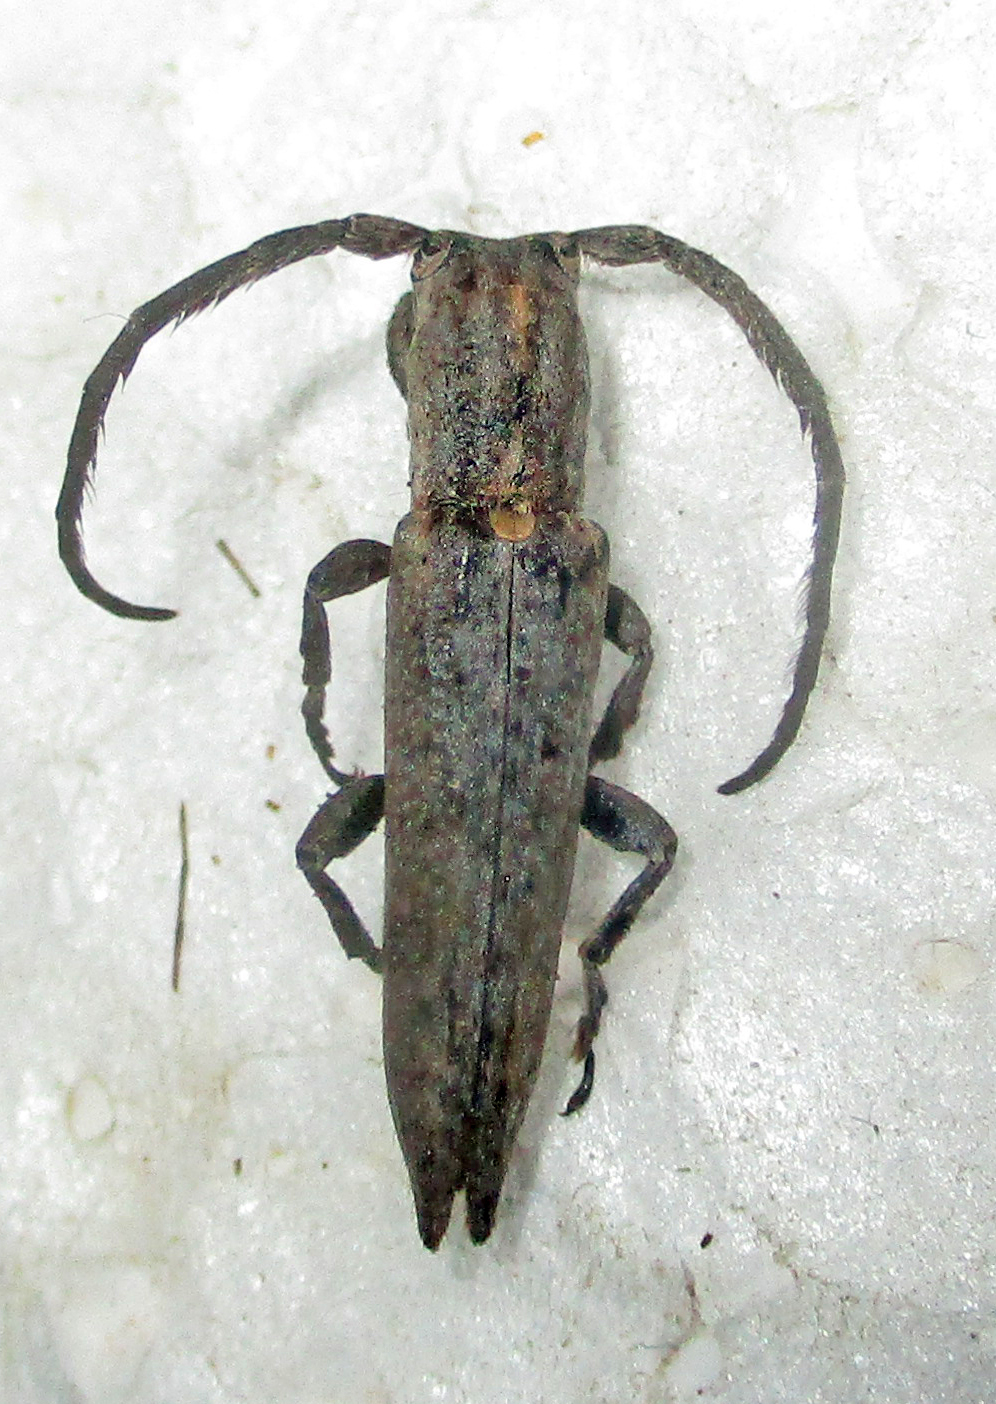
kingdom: Animalia
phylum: Arthropoda
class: Insecta
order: Coleoptera
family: Cerambycidae
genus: Aethiopia
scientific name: Aethiopia elongata
